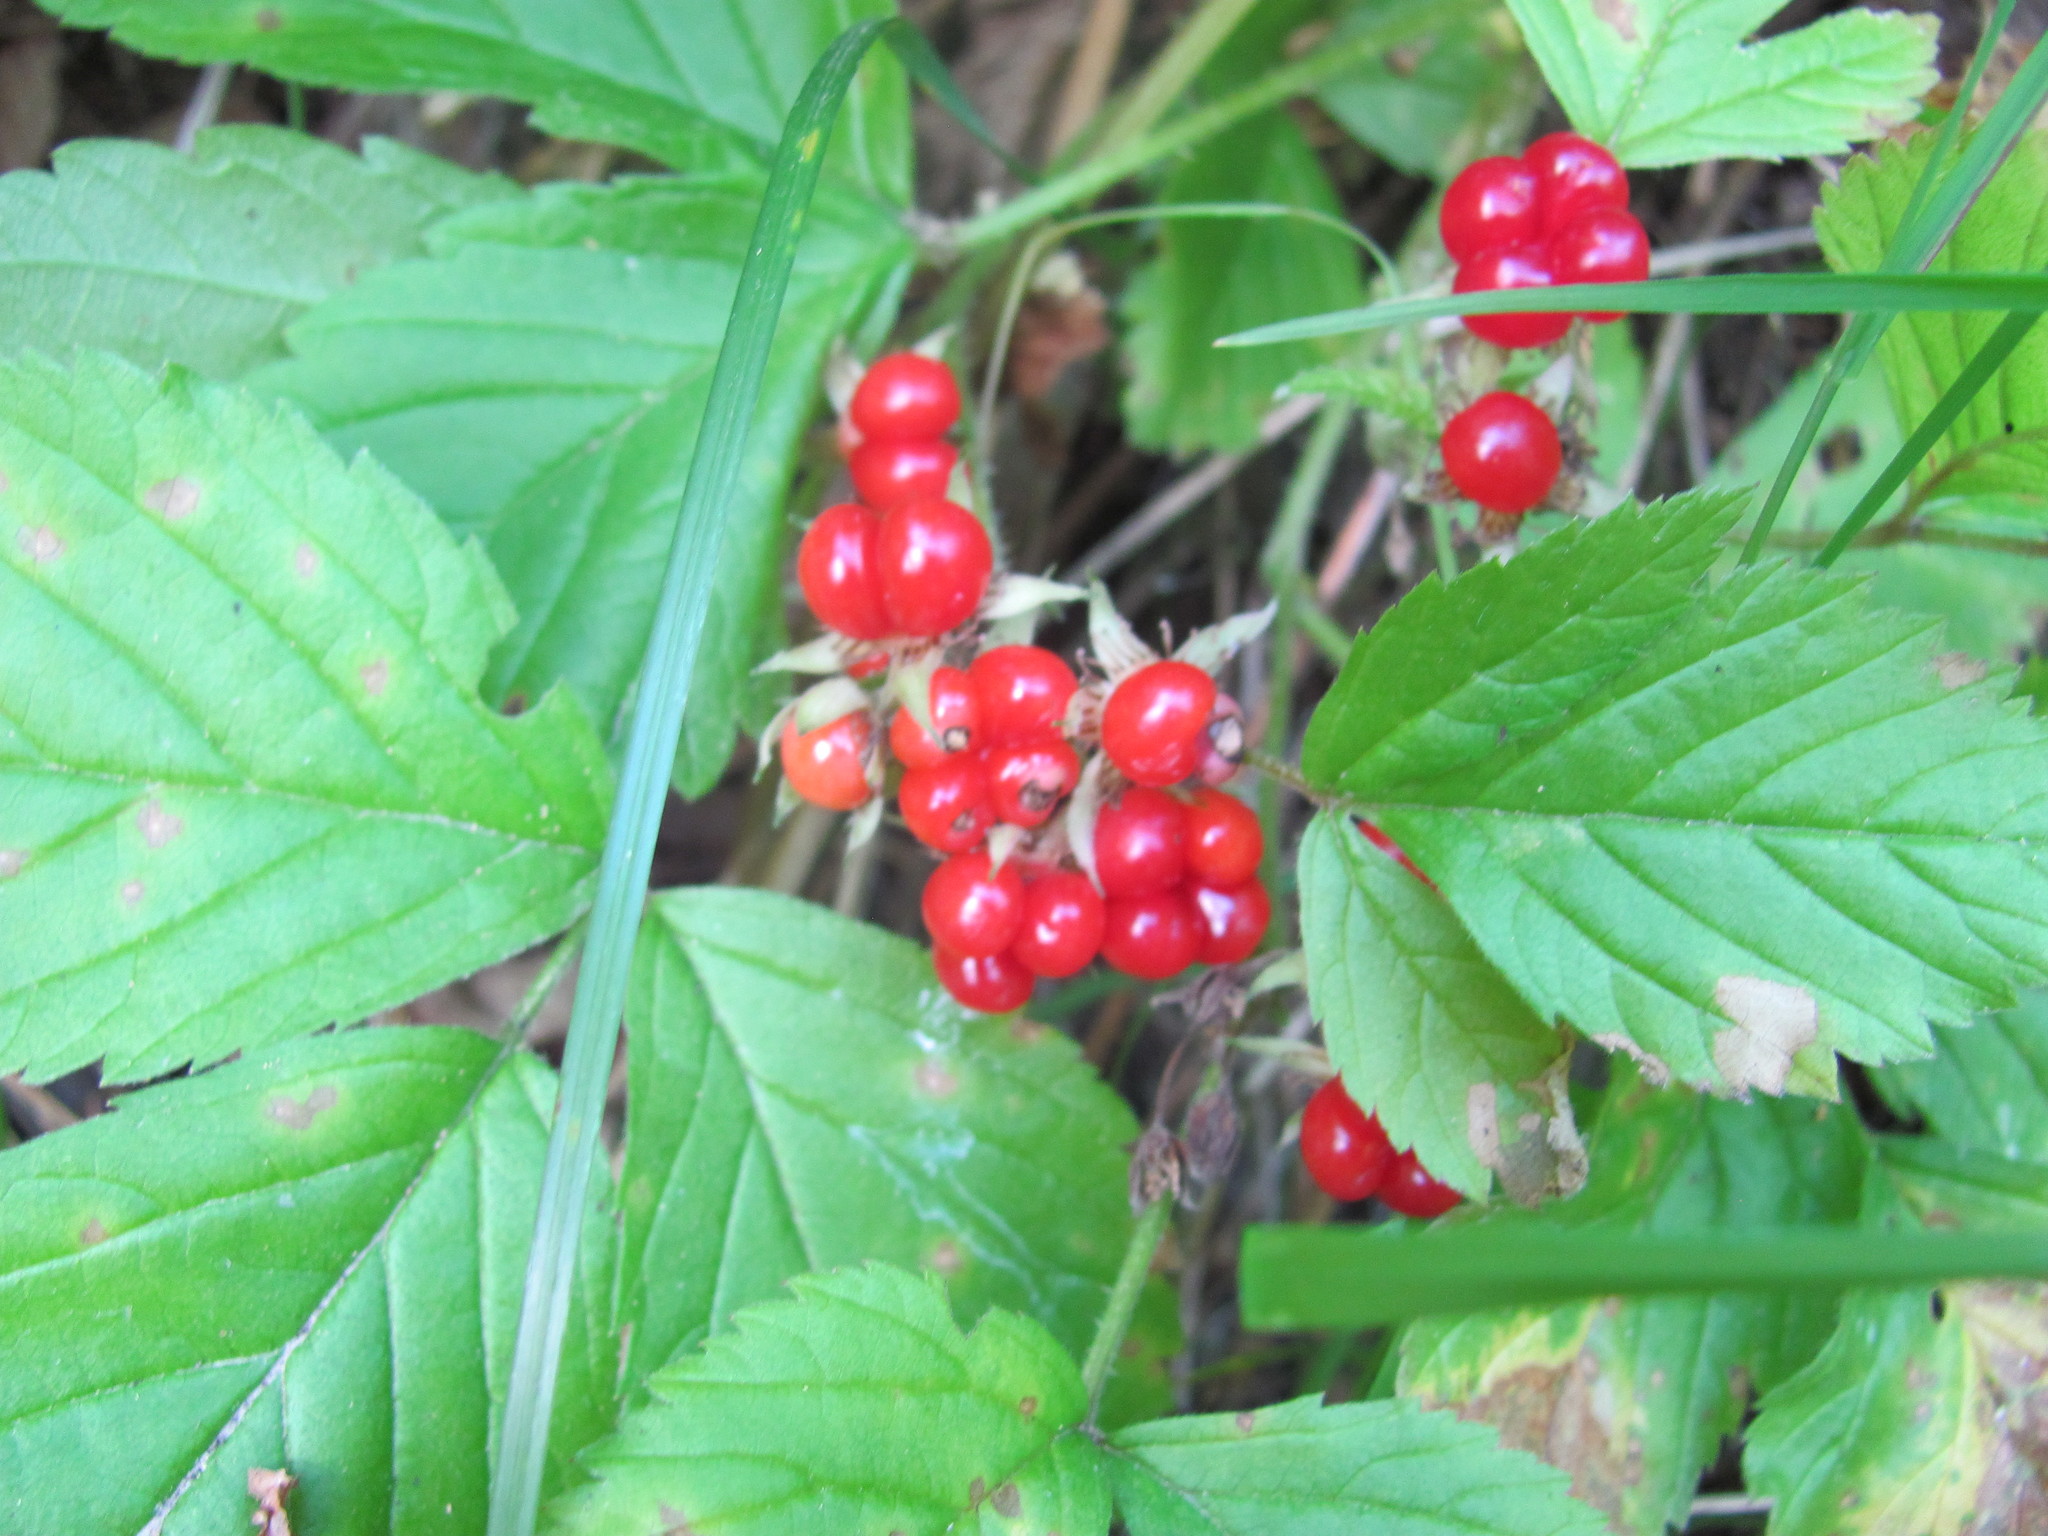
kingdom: Plantae
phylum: Tracheophyta
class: Magnoliopsida
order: Rosales
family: Rosaceae
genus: Rubus
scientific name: Rubus saxatilis
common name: Stone bramble
